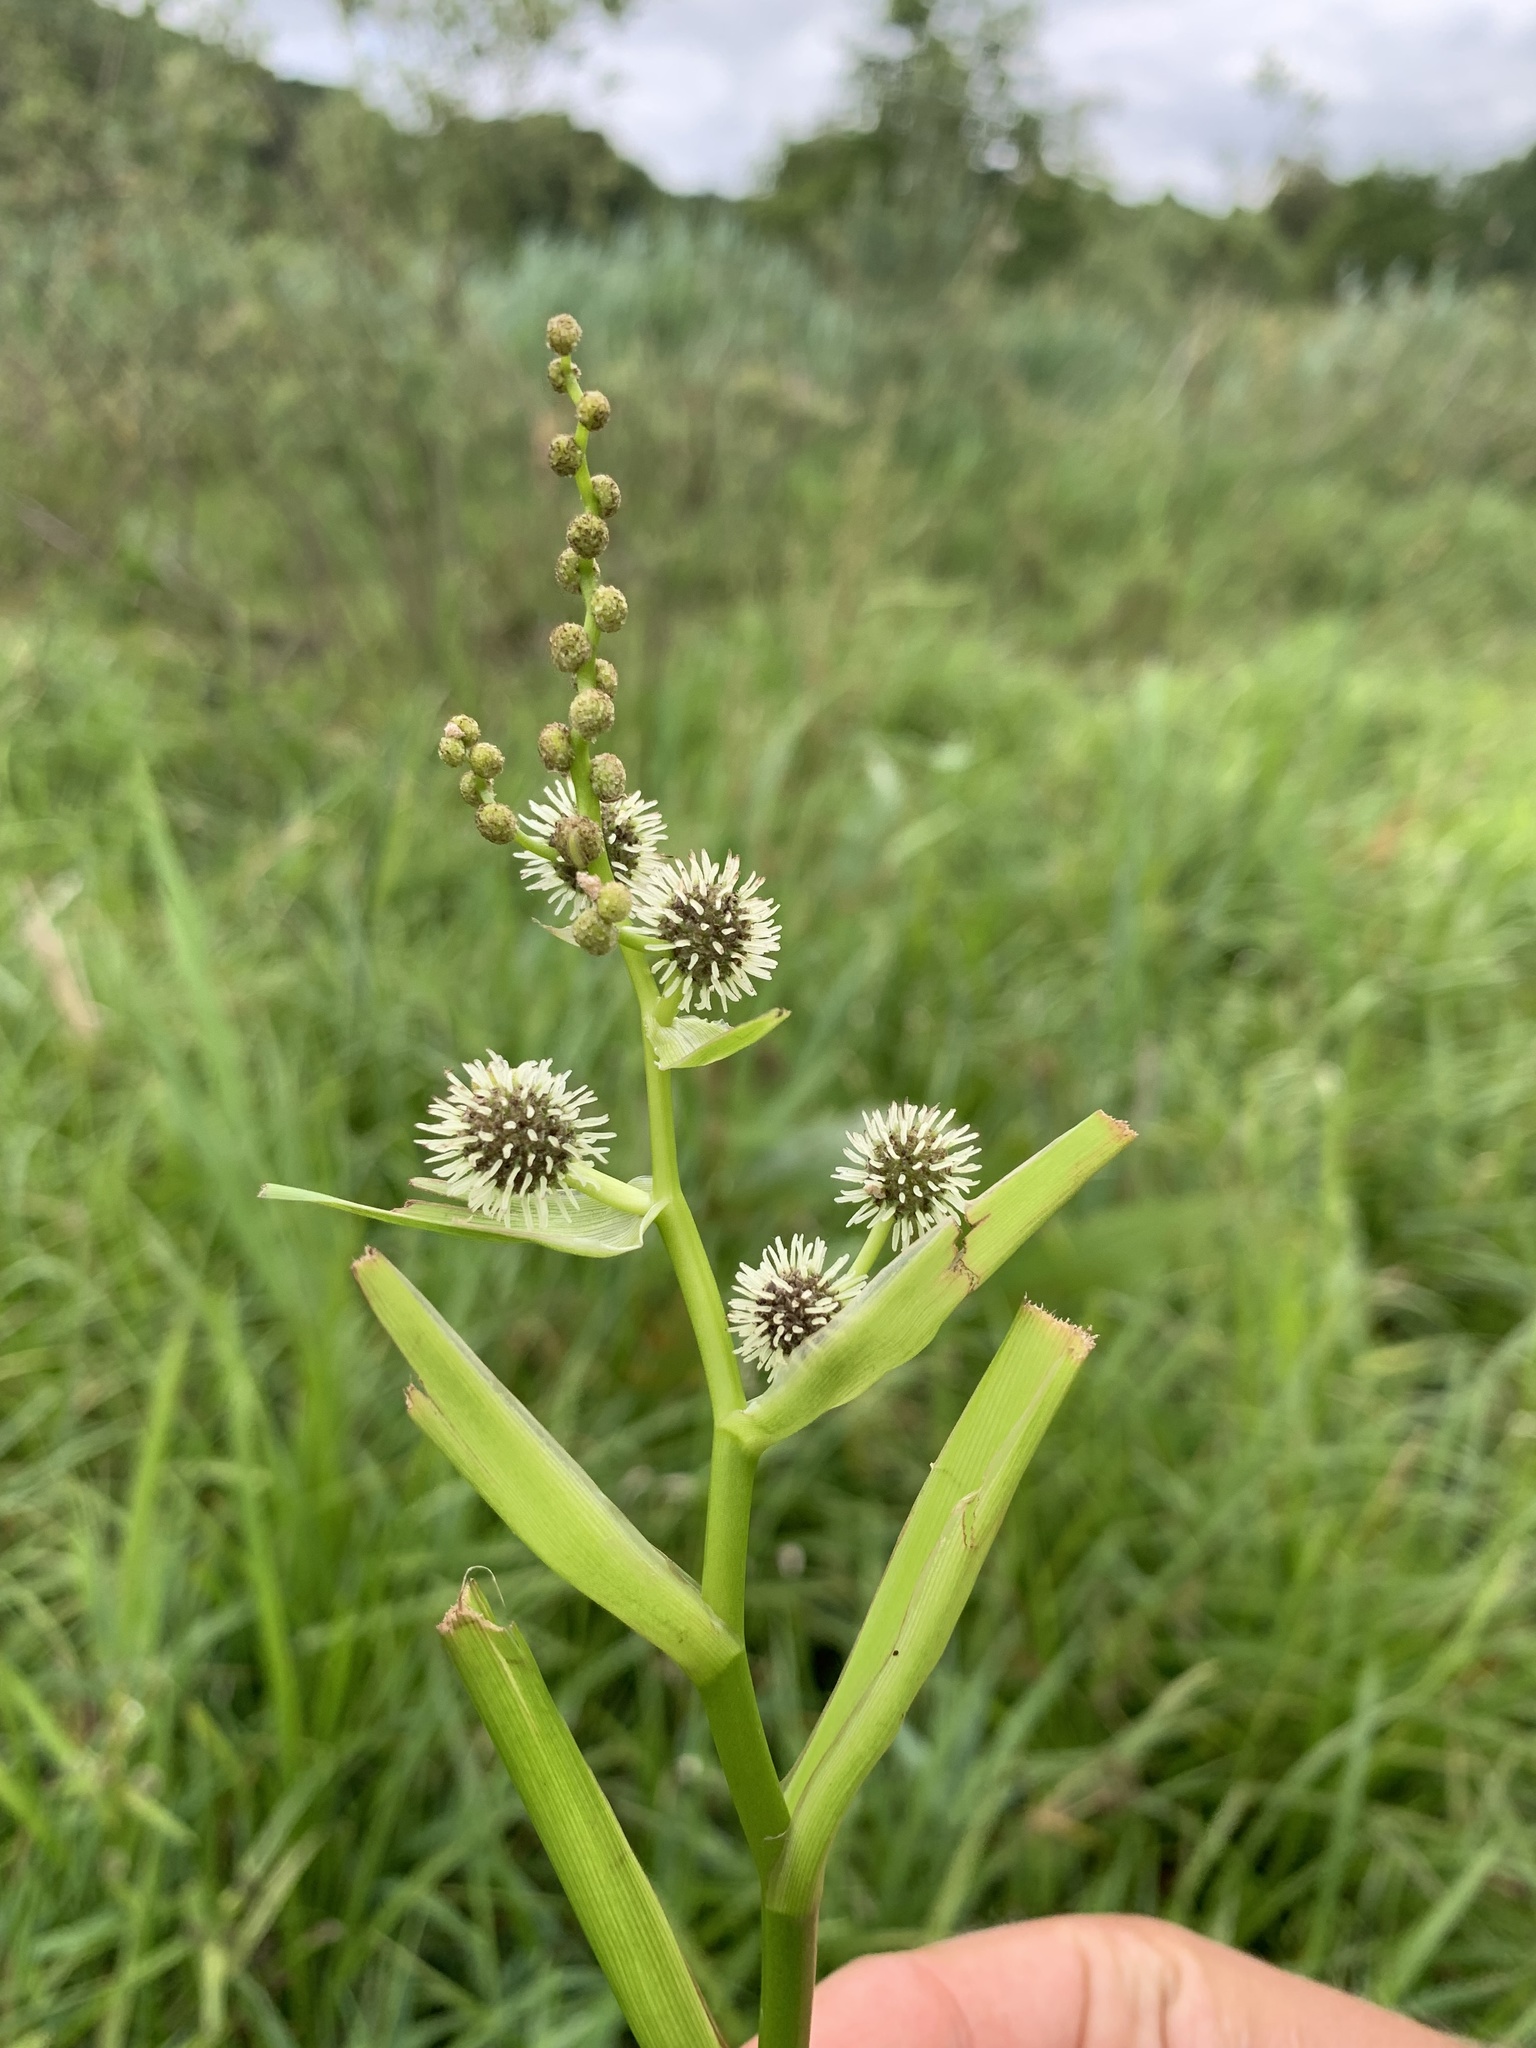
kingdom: Plantae
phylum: Tracheophyta
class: Liliopsida
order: Poales
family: Typhaceae
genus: Sparganium
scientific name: Sparganium erectum
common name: Branched bur-reed
